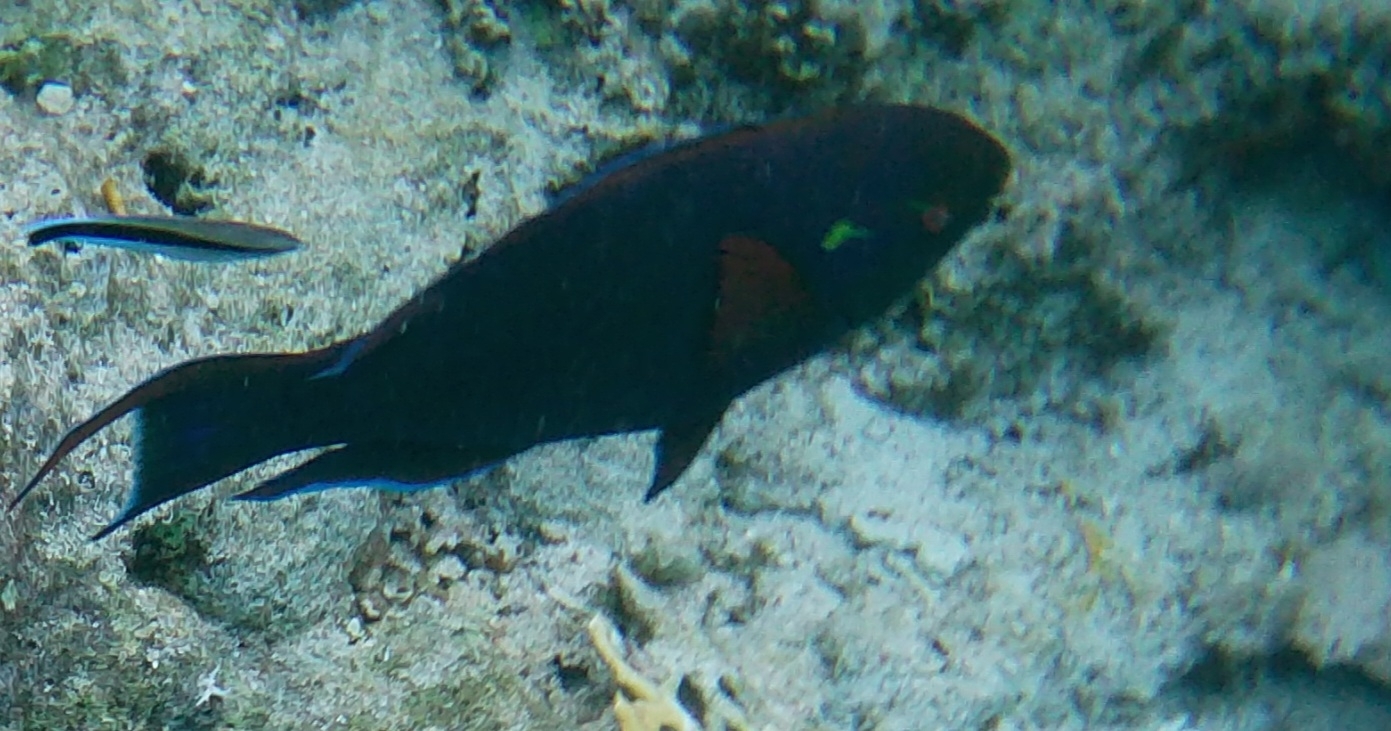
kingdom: Animalia
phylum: Chordata
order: Perciformes
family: Scaridae
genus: Scarus
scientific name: Scarus niger
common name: Dusky parrotfish
